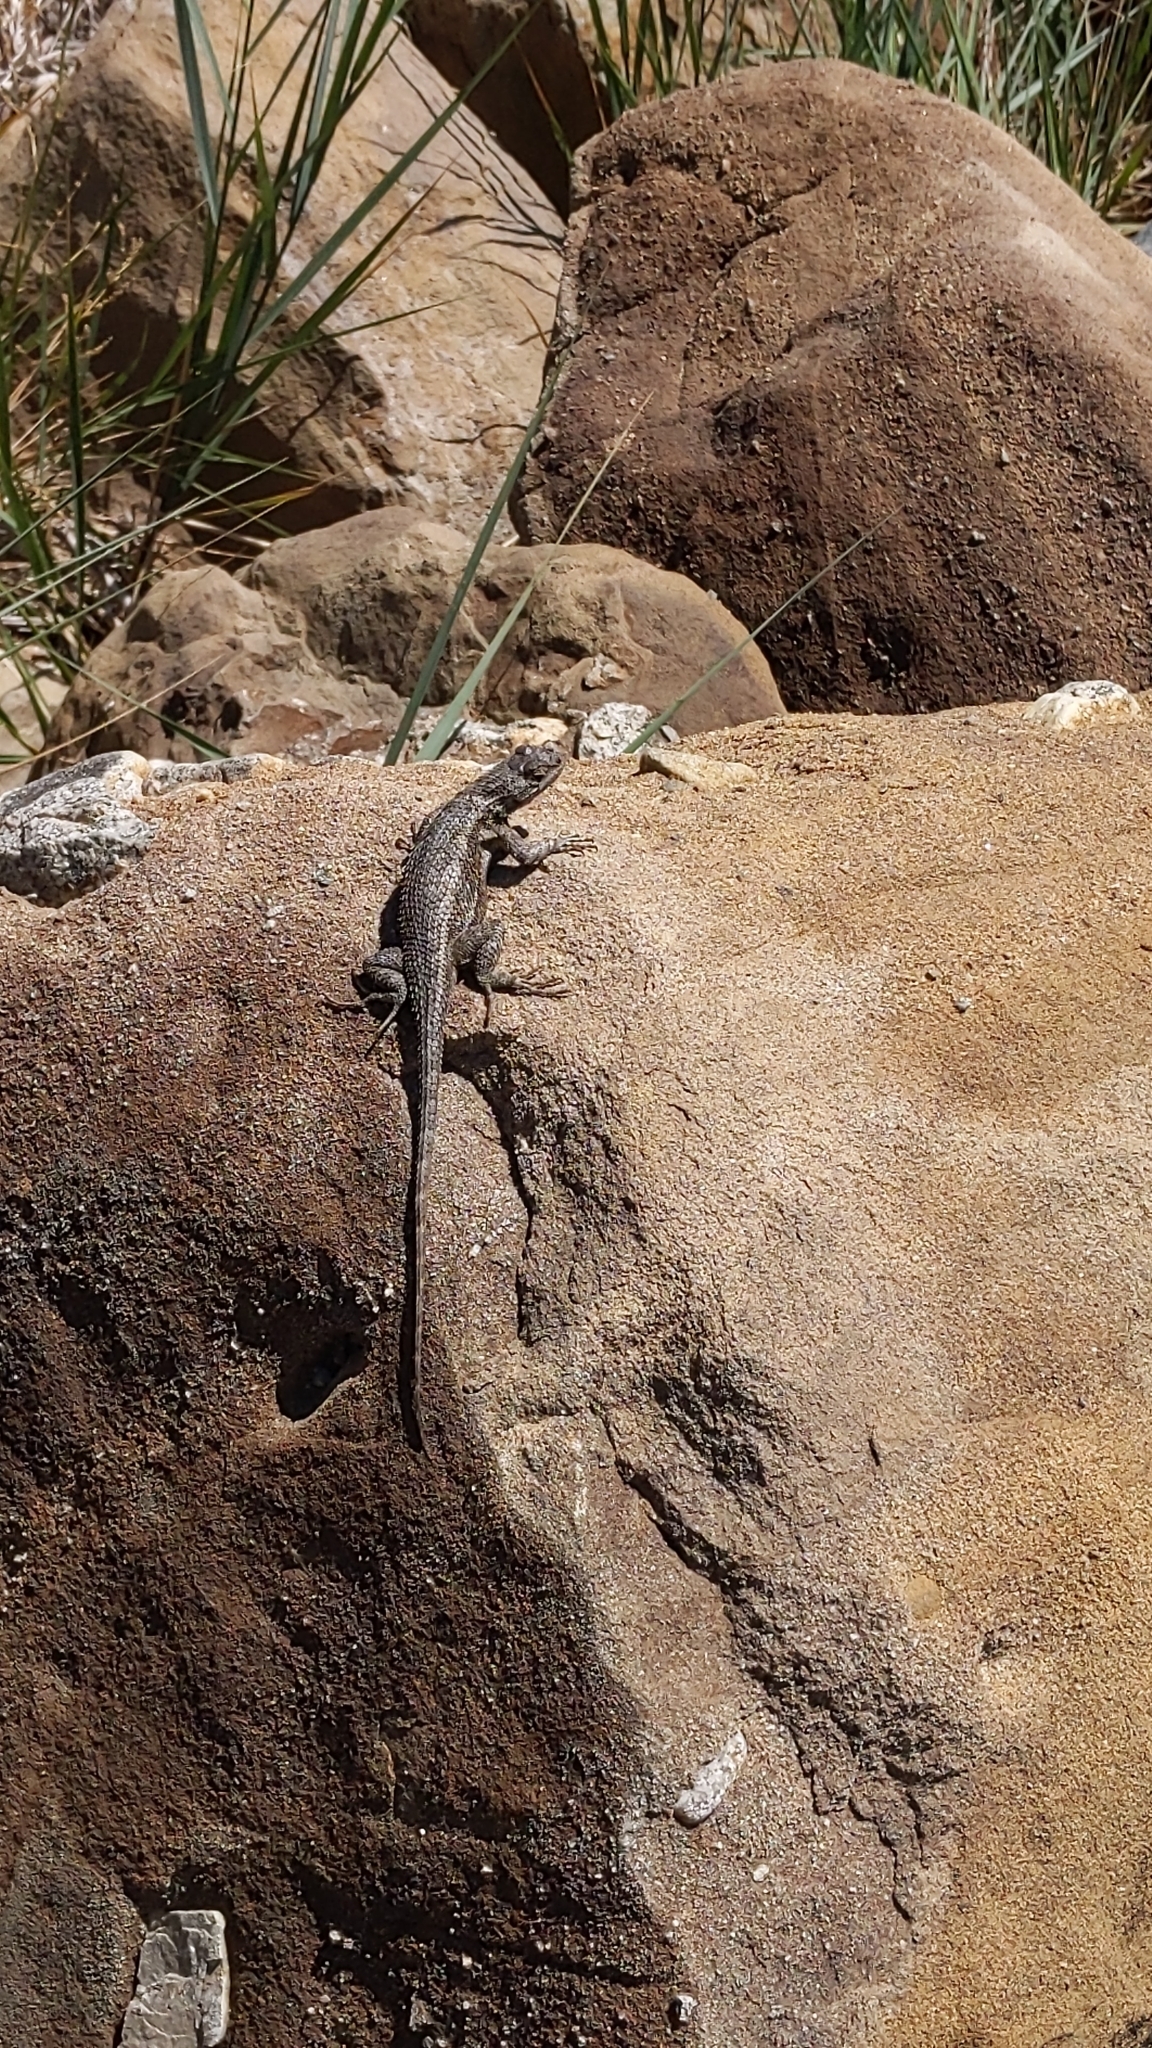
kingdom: Animalia
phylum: Chordata
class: Squamata
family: Phrynosomatidae
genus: Sceloporus
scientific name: Sceloporus occidentalis
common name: Western fence lizard
